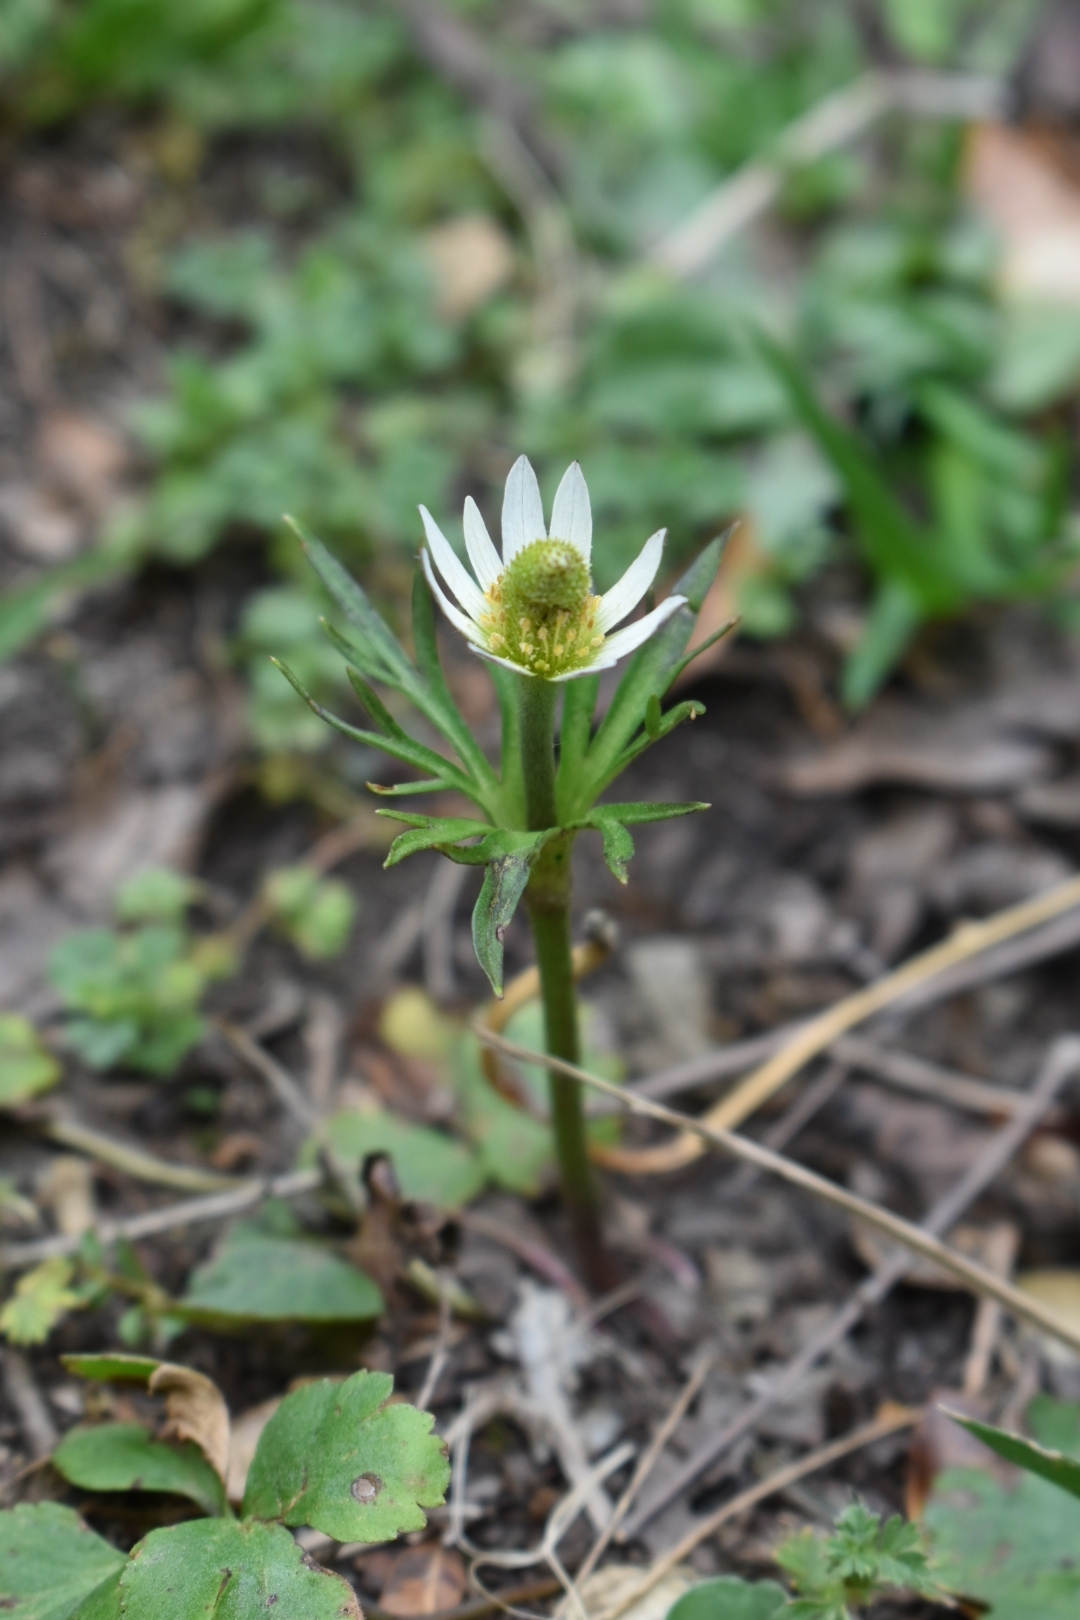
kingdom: Plantae
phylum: Tracheophyta
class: Magnoliopsida
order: Ranunculales
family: Ranunculaceae
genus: Anemone
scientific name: Anemone decapetala
